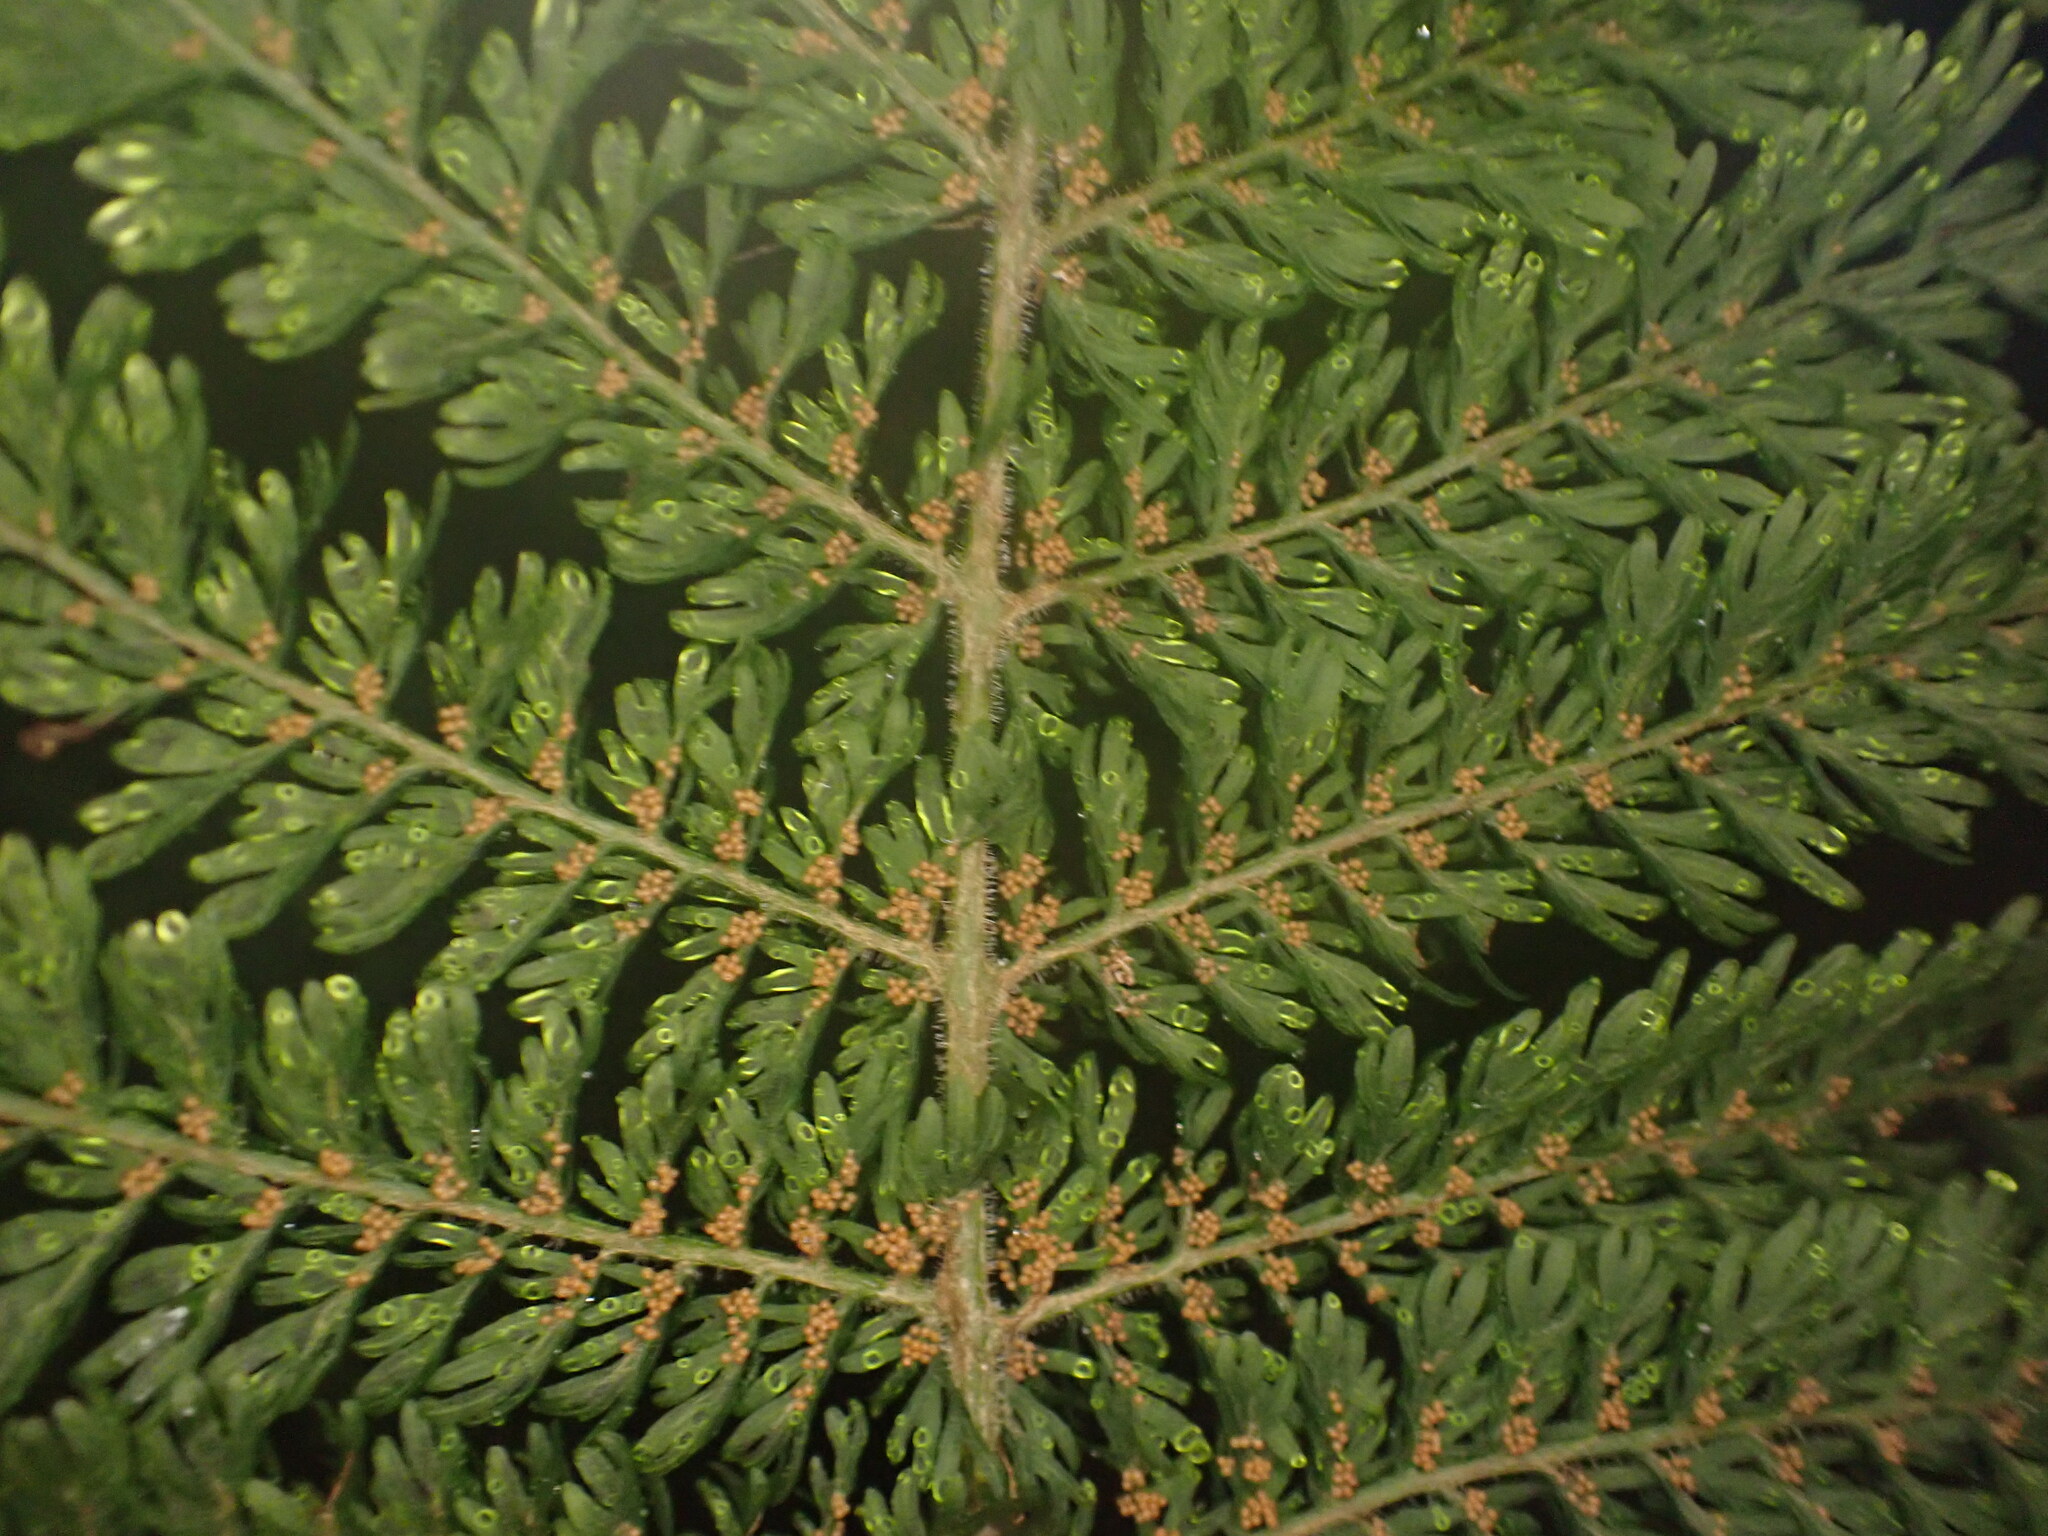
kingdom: Plantae
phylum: Tracheophyta
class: Polypodiopsida
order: Osmundales
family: Osmundaceae
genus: Leptopteris
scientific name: Leptopteris superba
